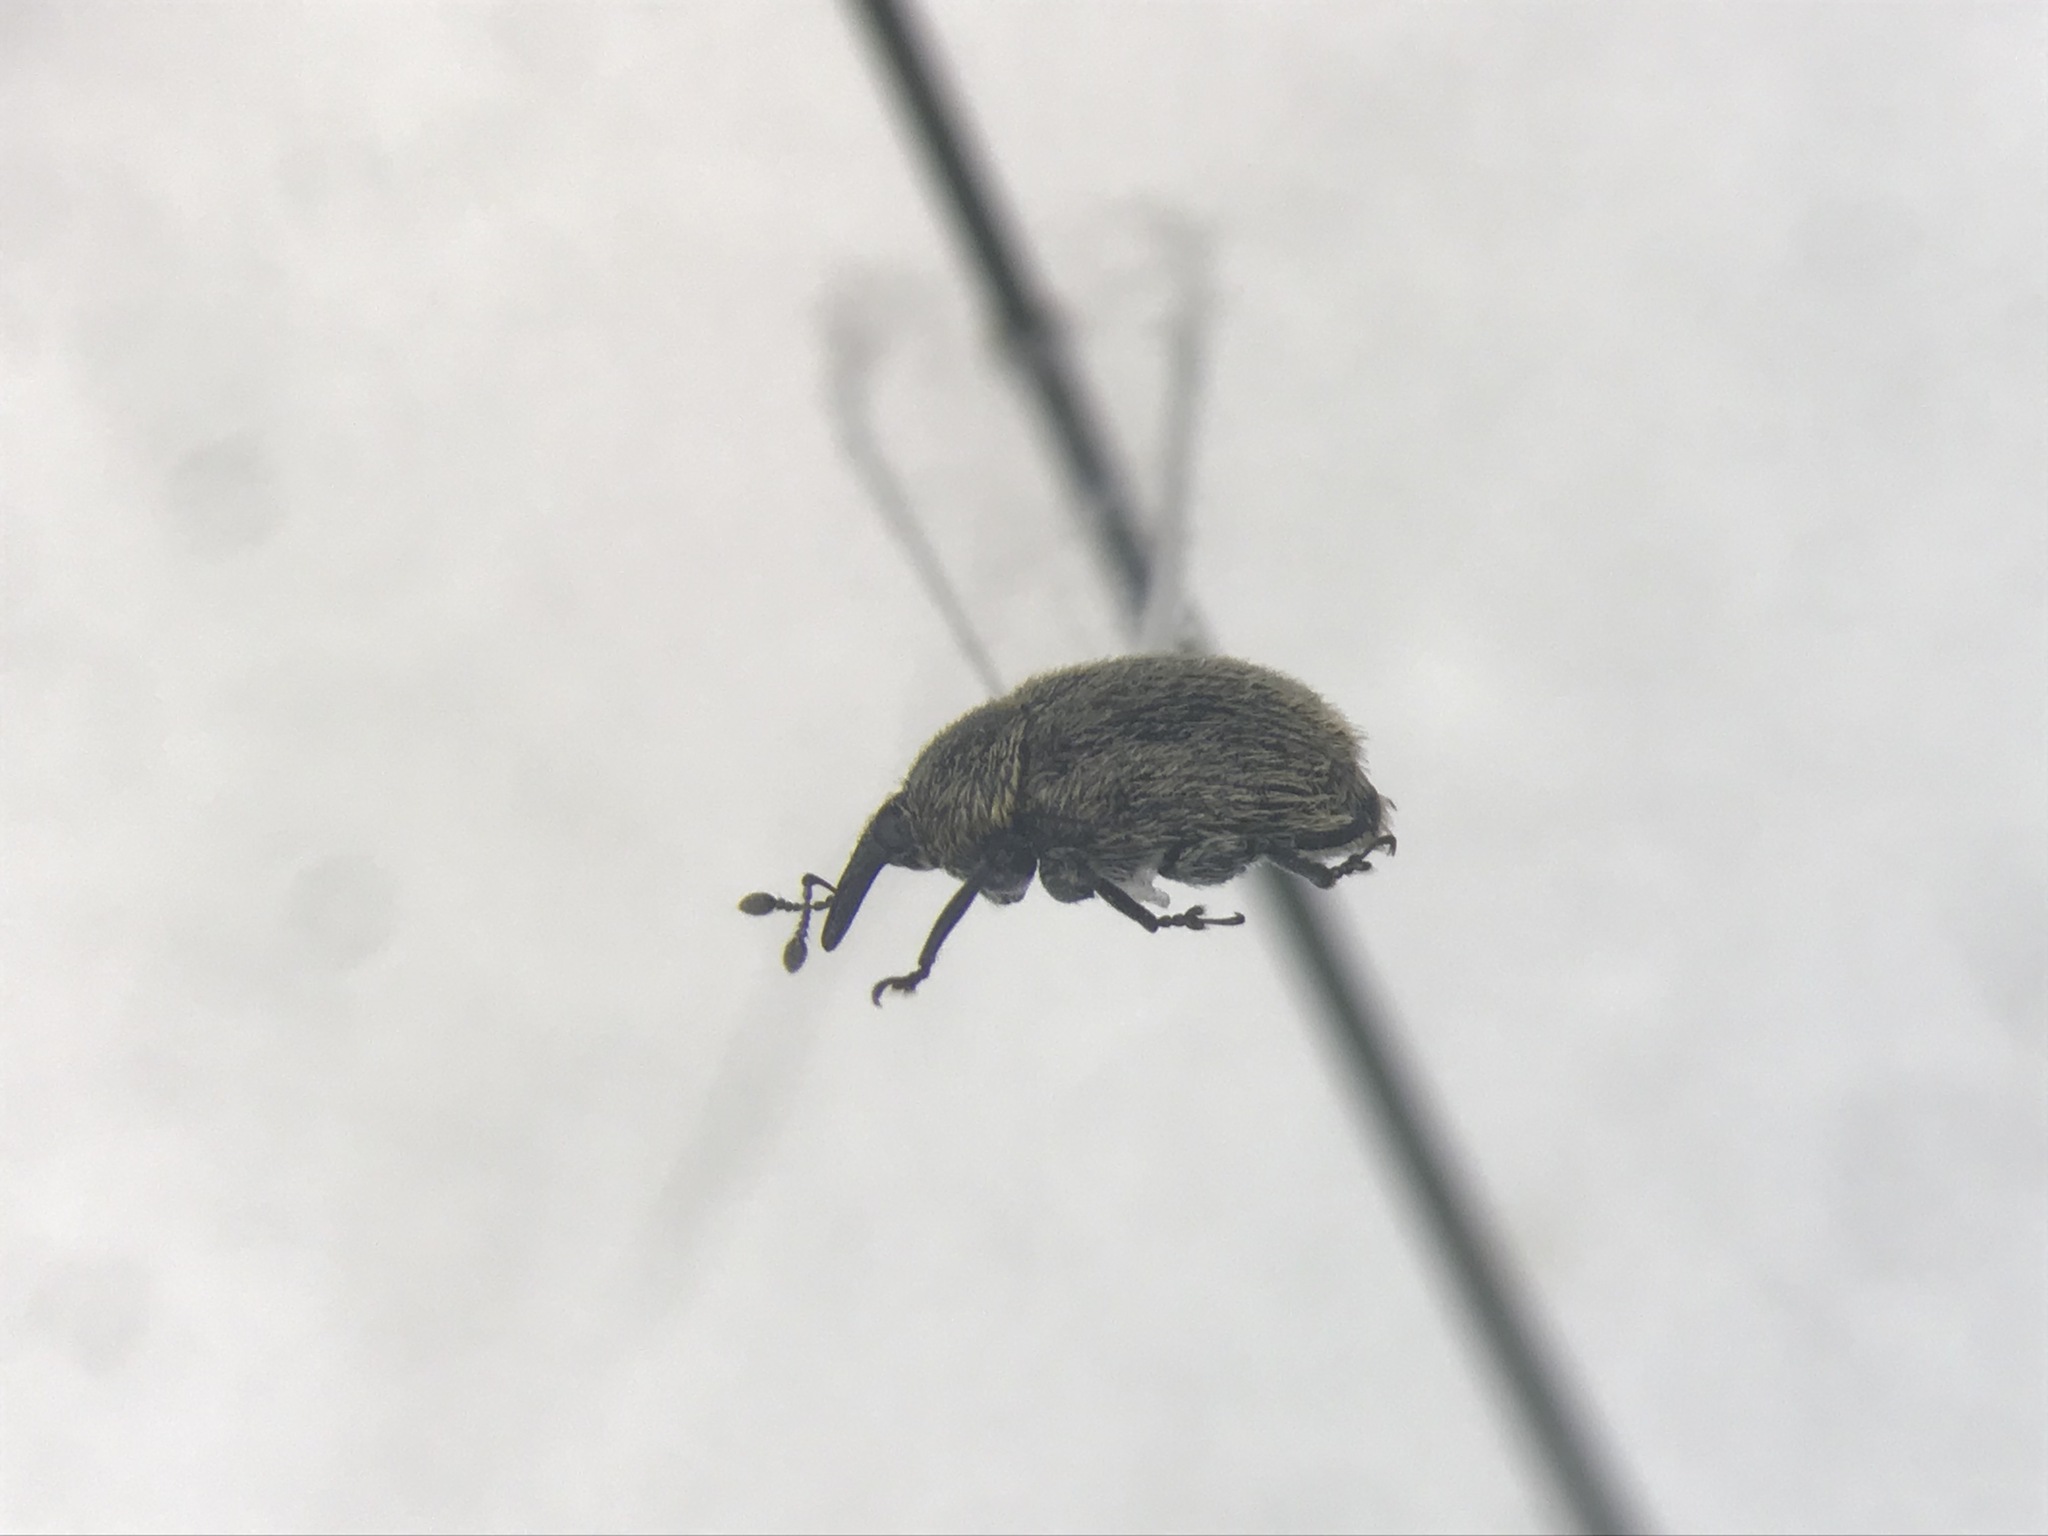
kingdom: Animalia
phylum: Arthropoda
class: Insecta
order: Coleoptera
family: Curculionidae
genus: Rhinusa
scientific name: Rhinusa tetra
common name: Weevil
